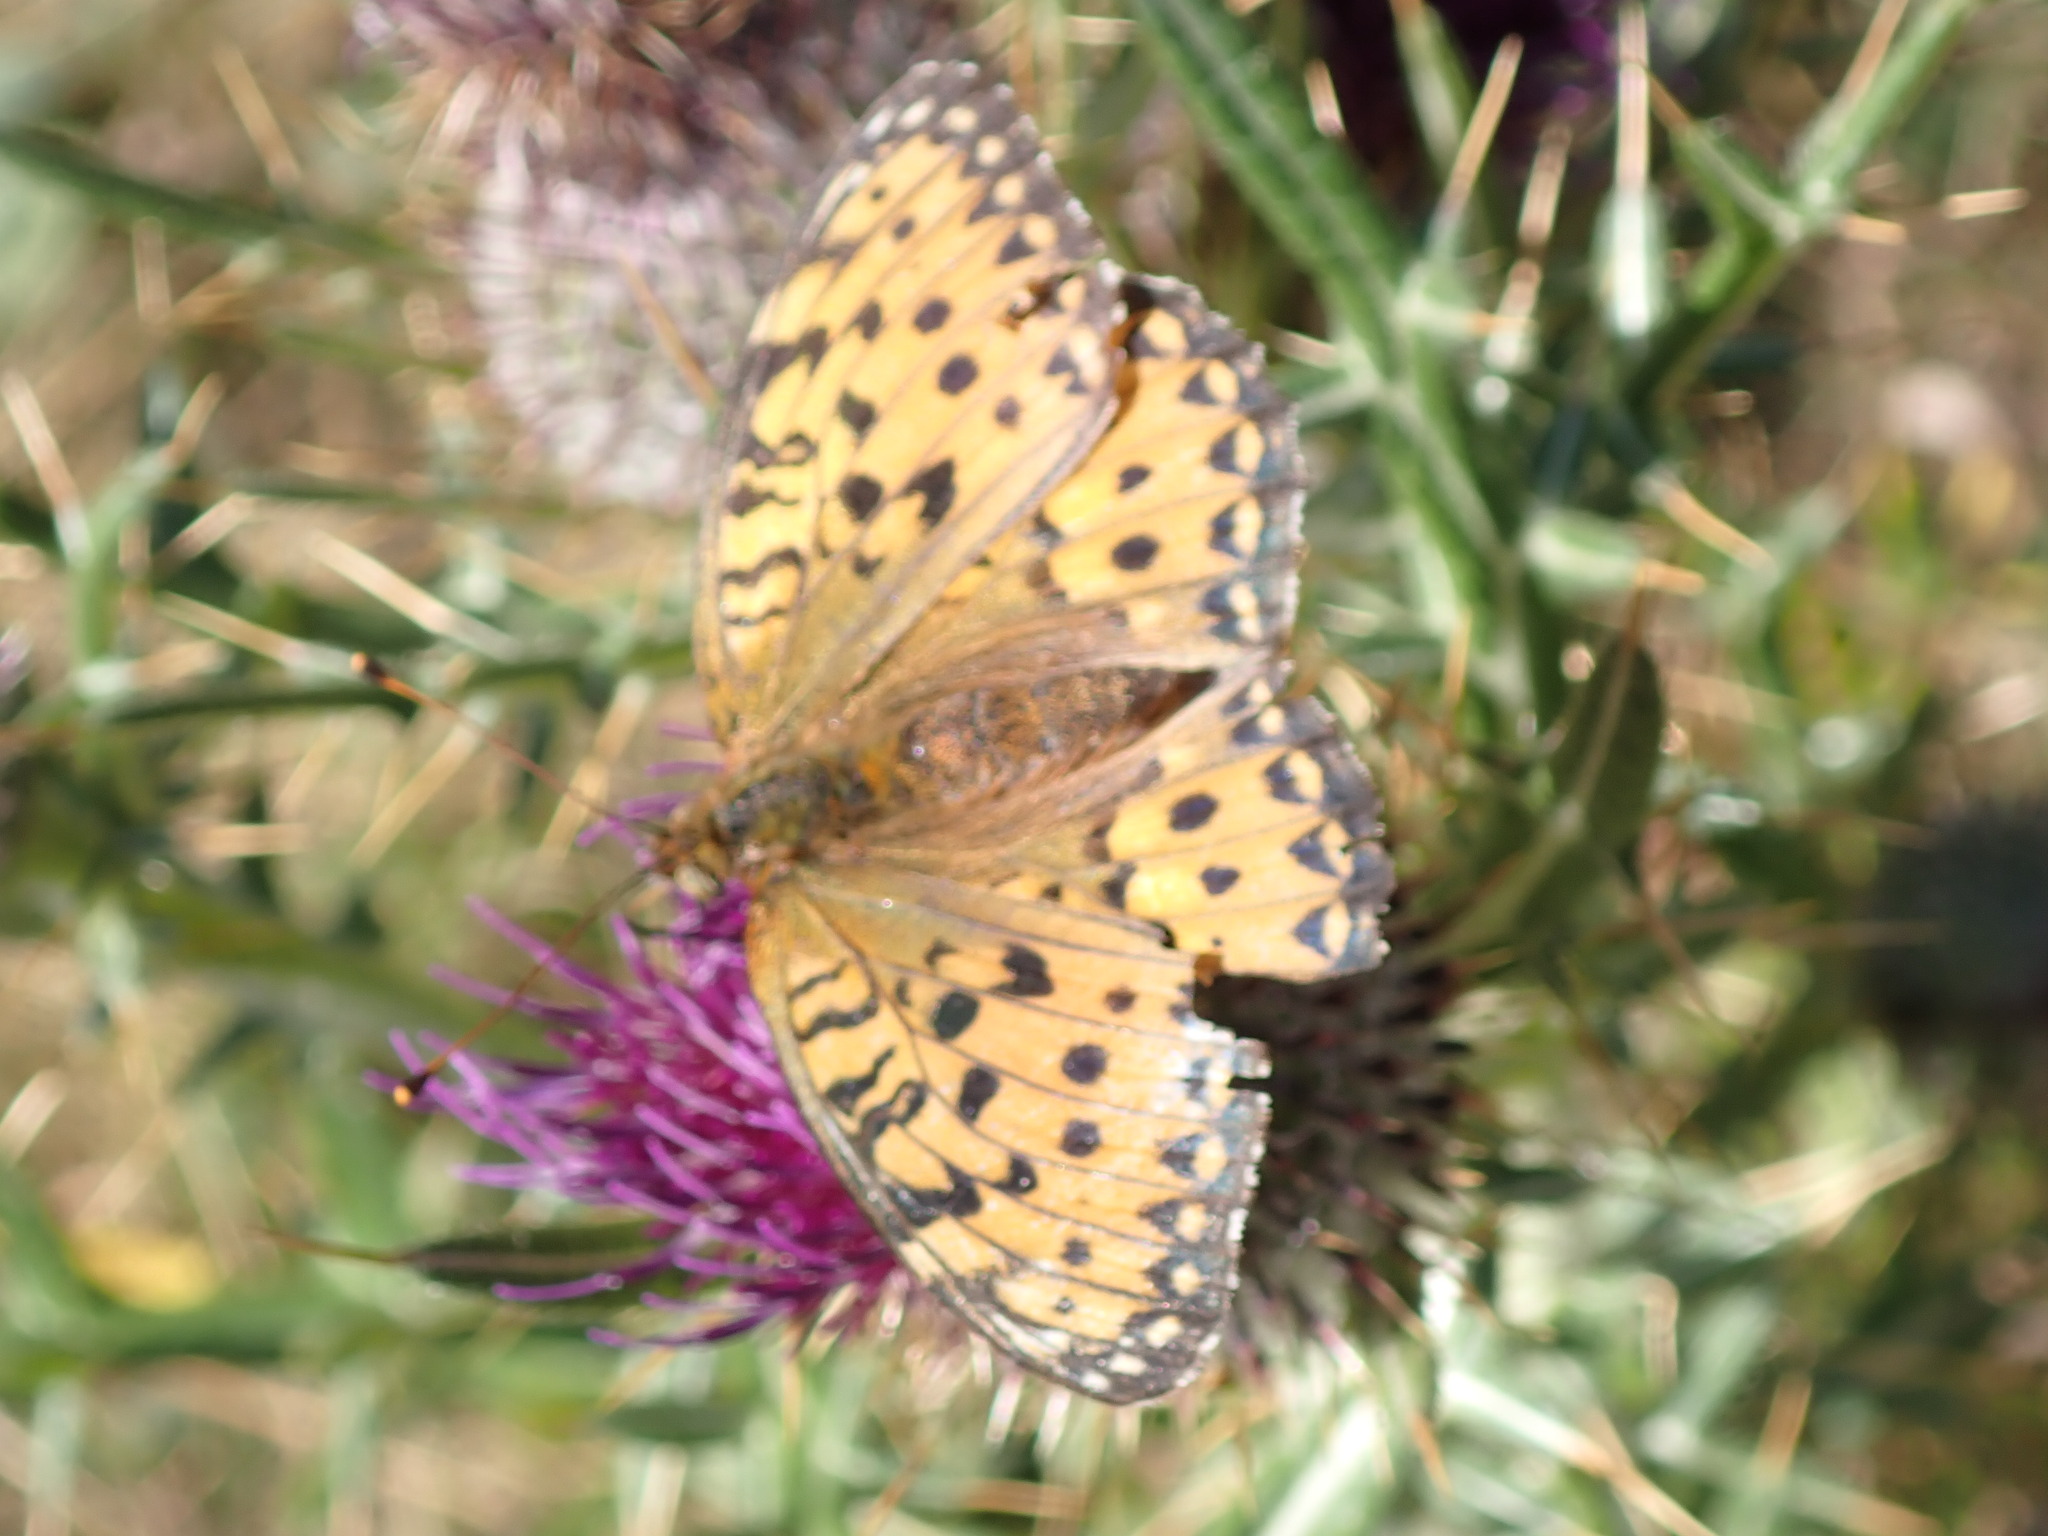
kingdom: Animalia
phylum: Arthropoda
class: Insecta
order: Lepidoptera
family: Nymphalidae
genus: Fabriciana
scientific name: Fabriciana adippe
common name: High brown fritillary
